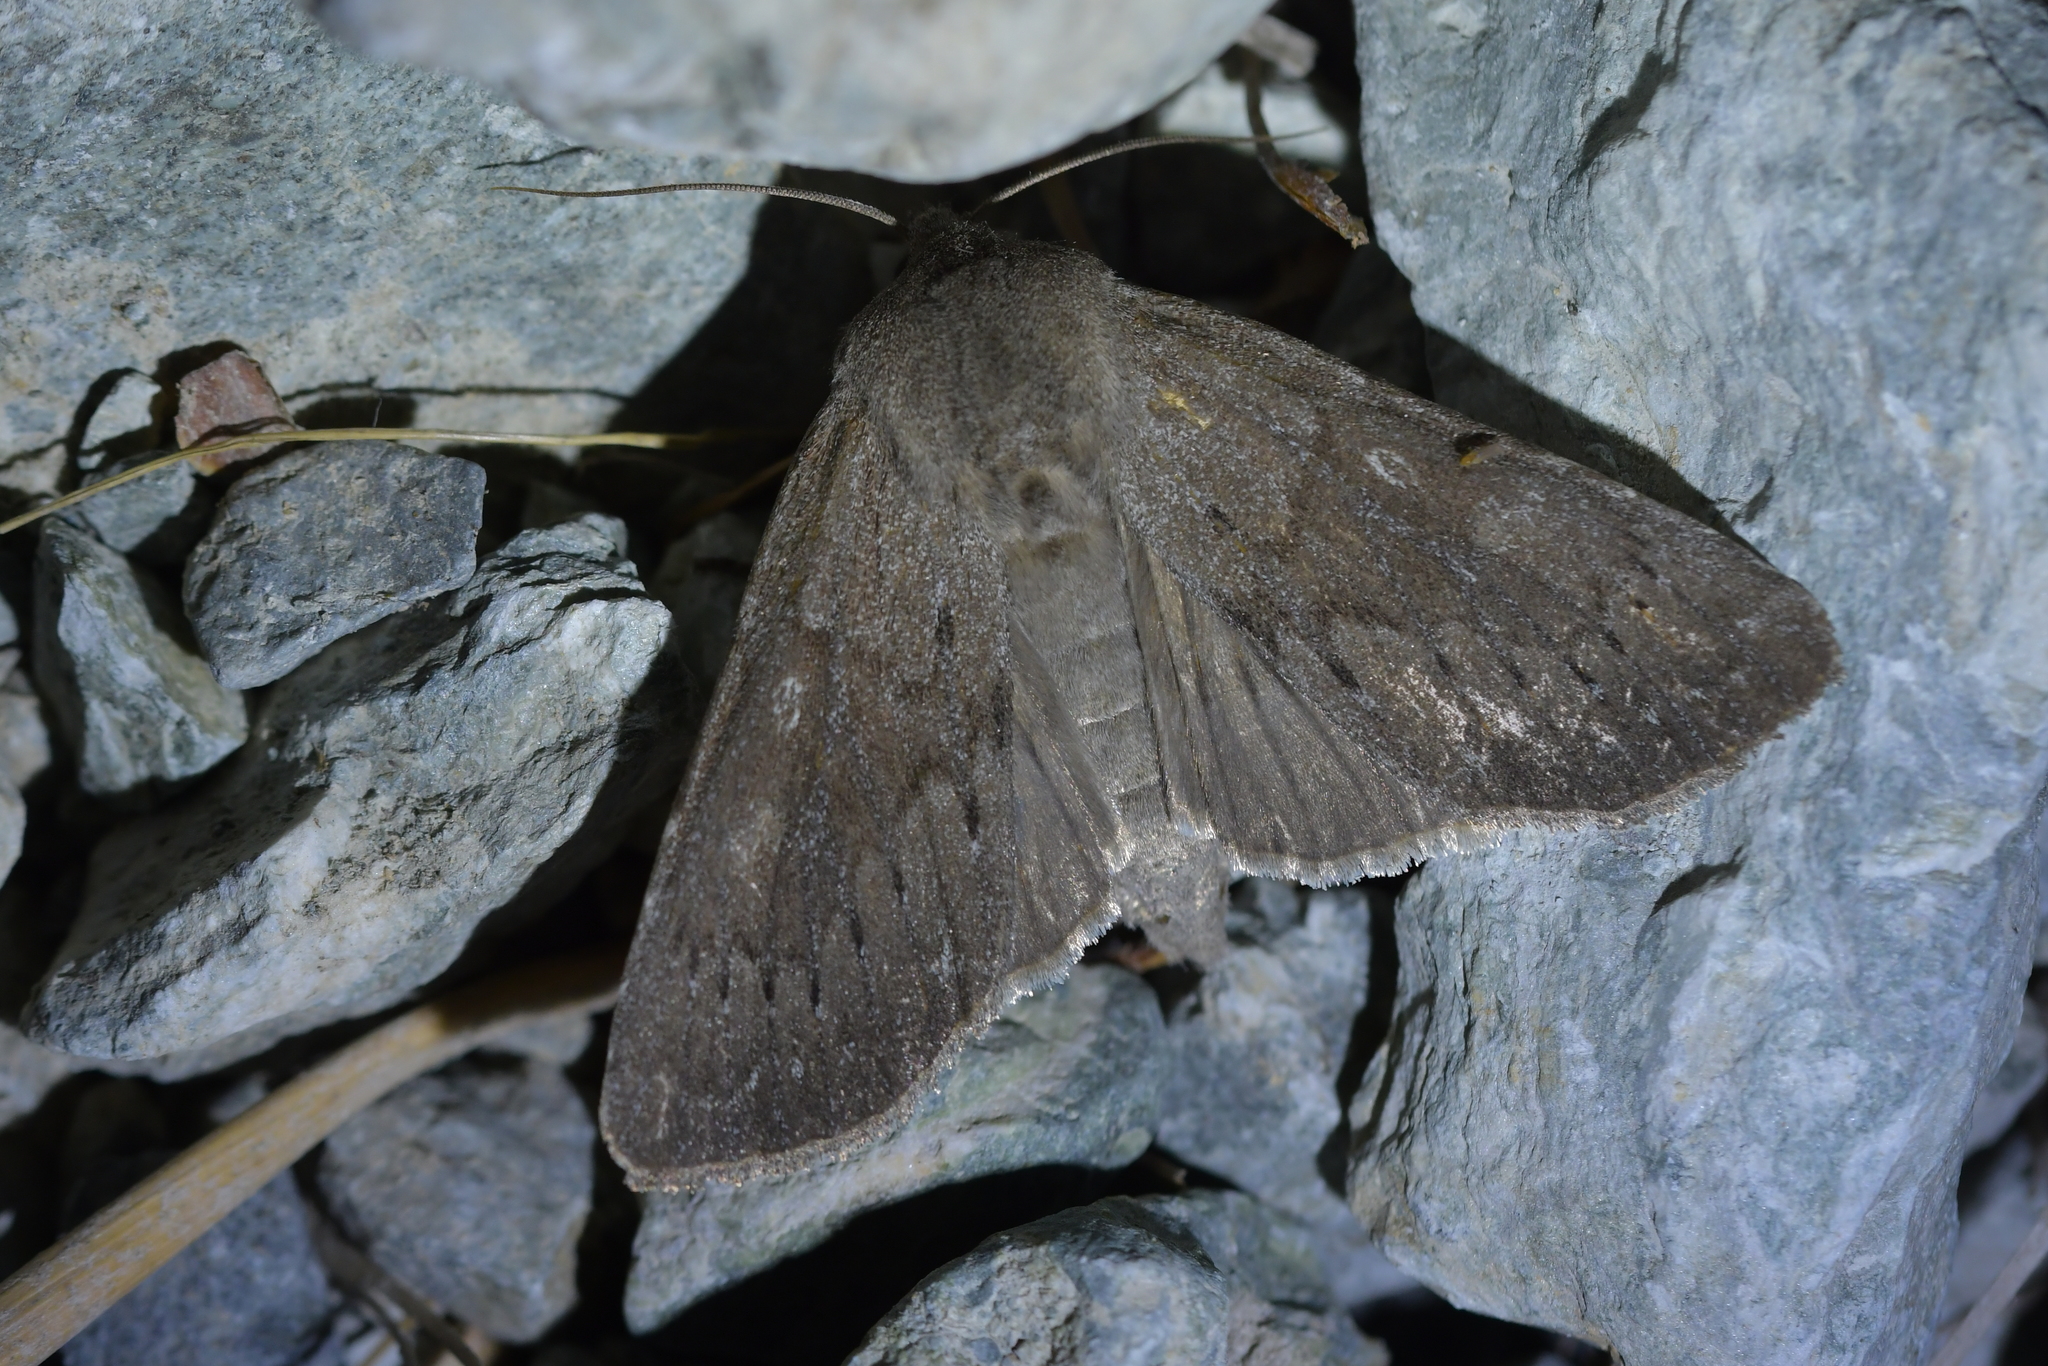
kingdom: Animalia
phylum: Arthropoda
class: Insecta
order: Lepidoptera
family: Noctuidae
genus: Ichneutica
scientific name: Ichneutica nullifera
